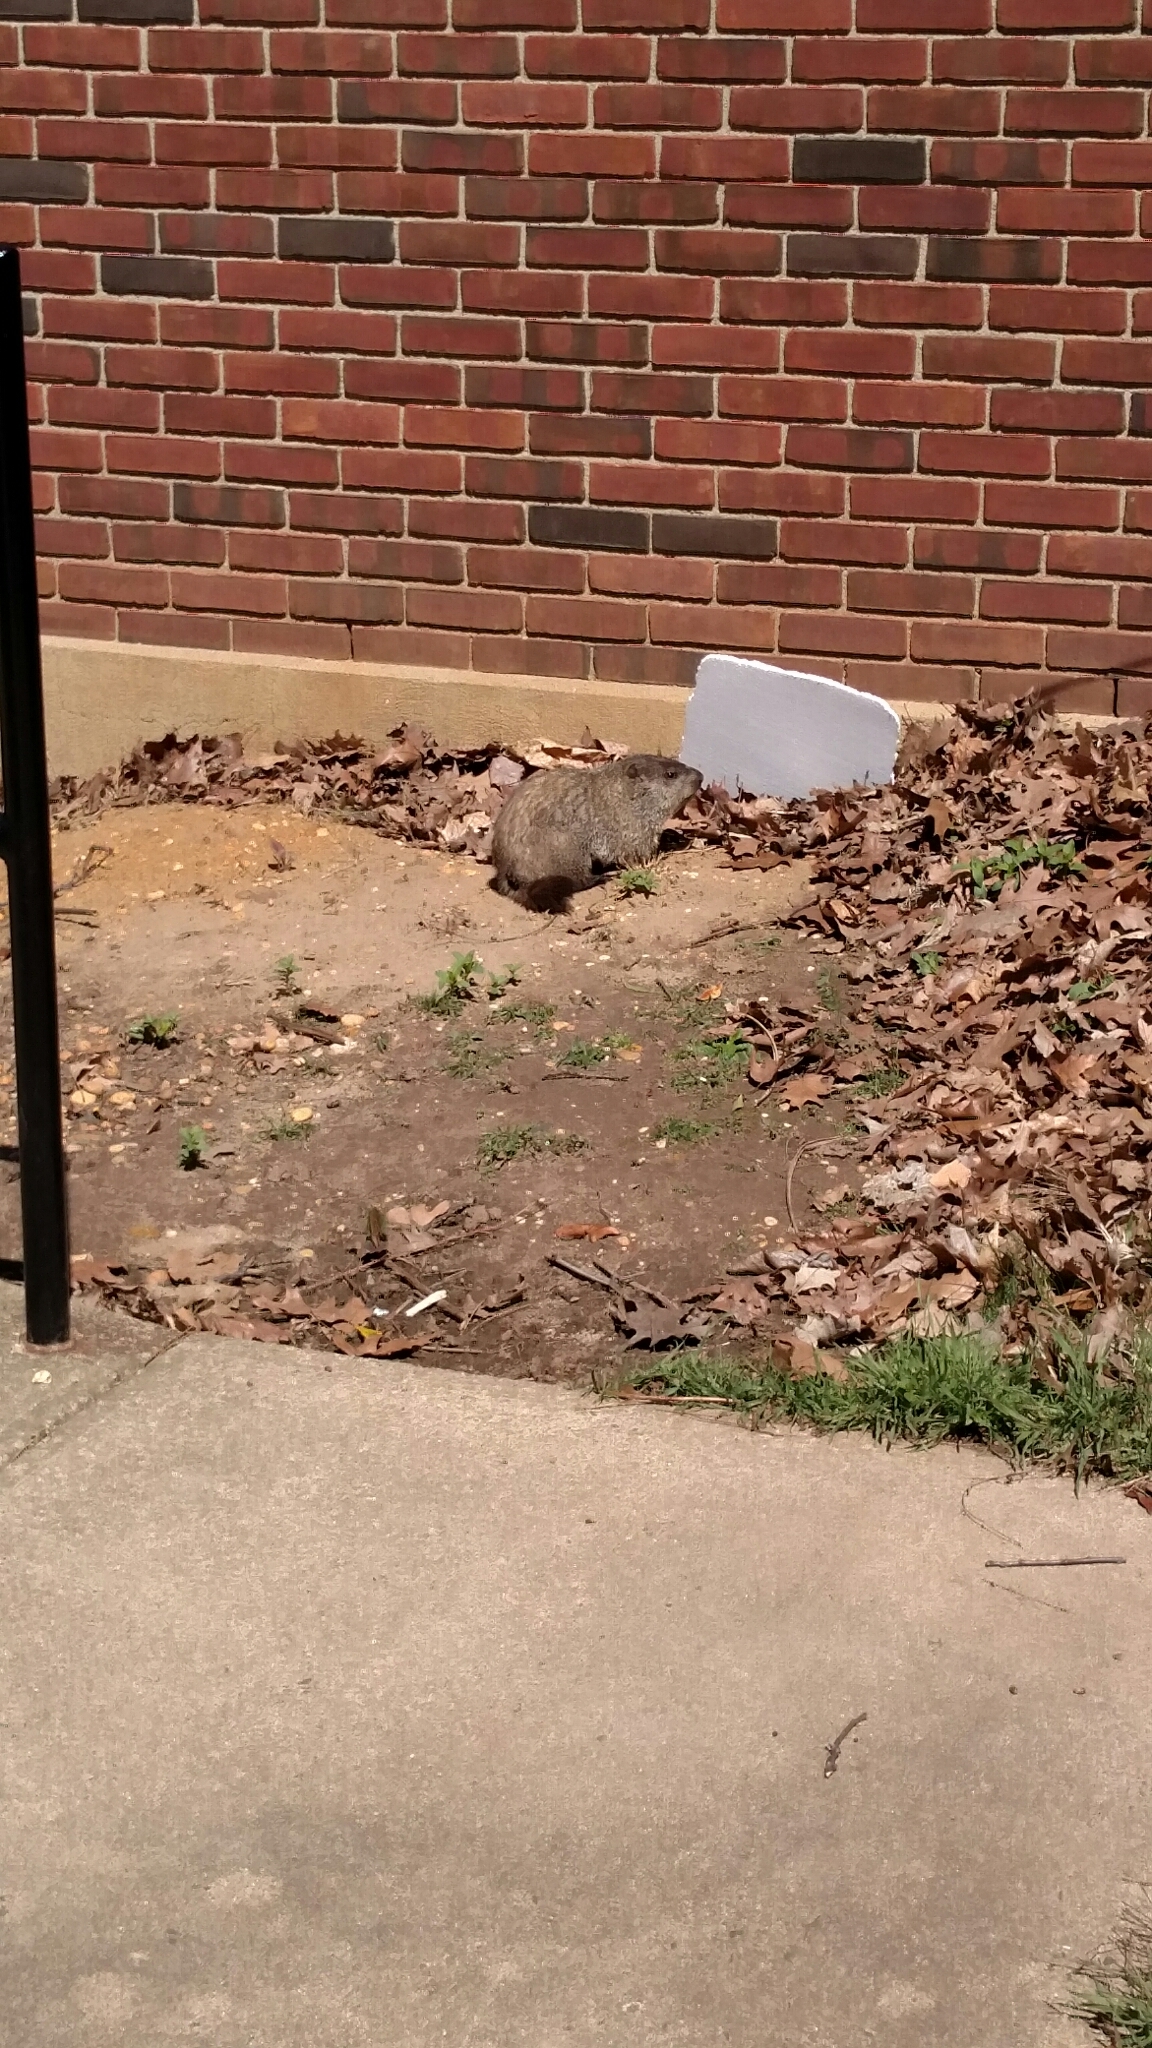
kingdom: Animalia
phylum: Chordata
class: Mammalia
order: Rodentia
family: Sciuridae
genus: Marmota
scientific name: Marmota monax
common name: Groundhog
